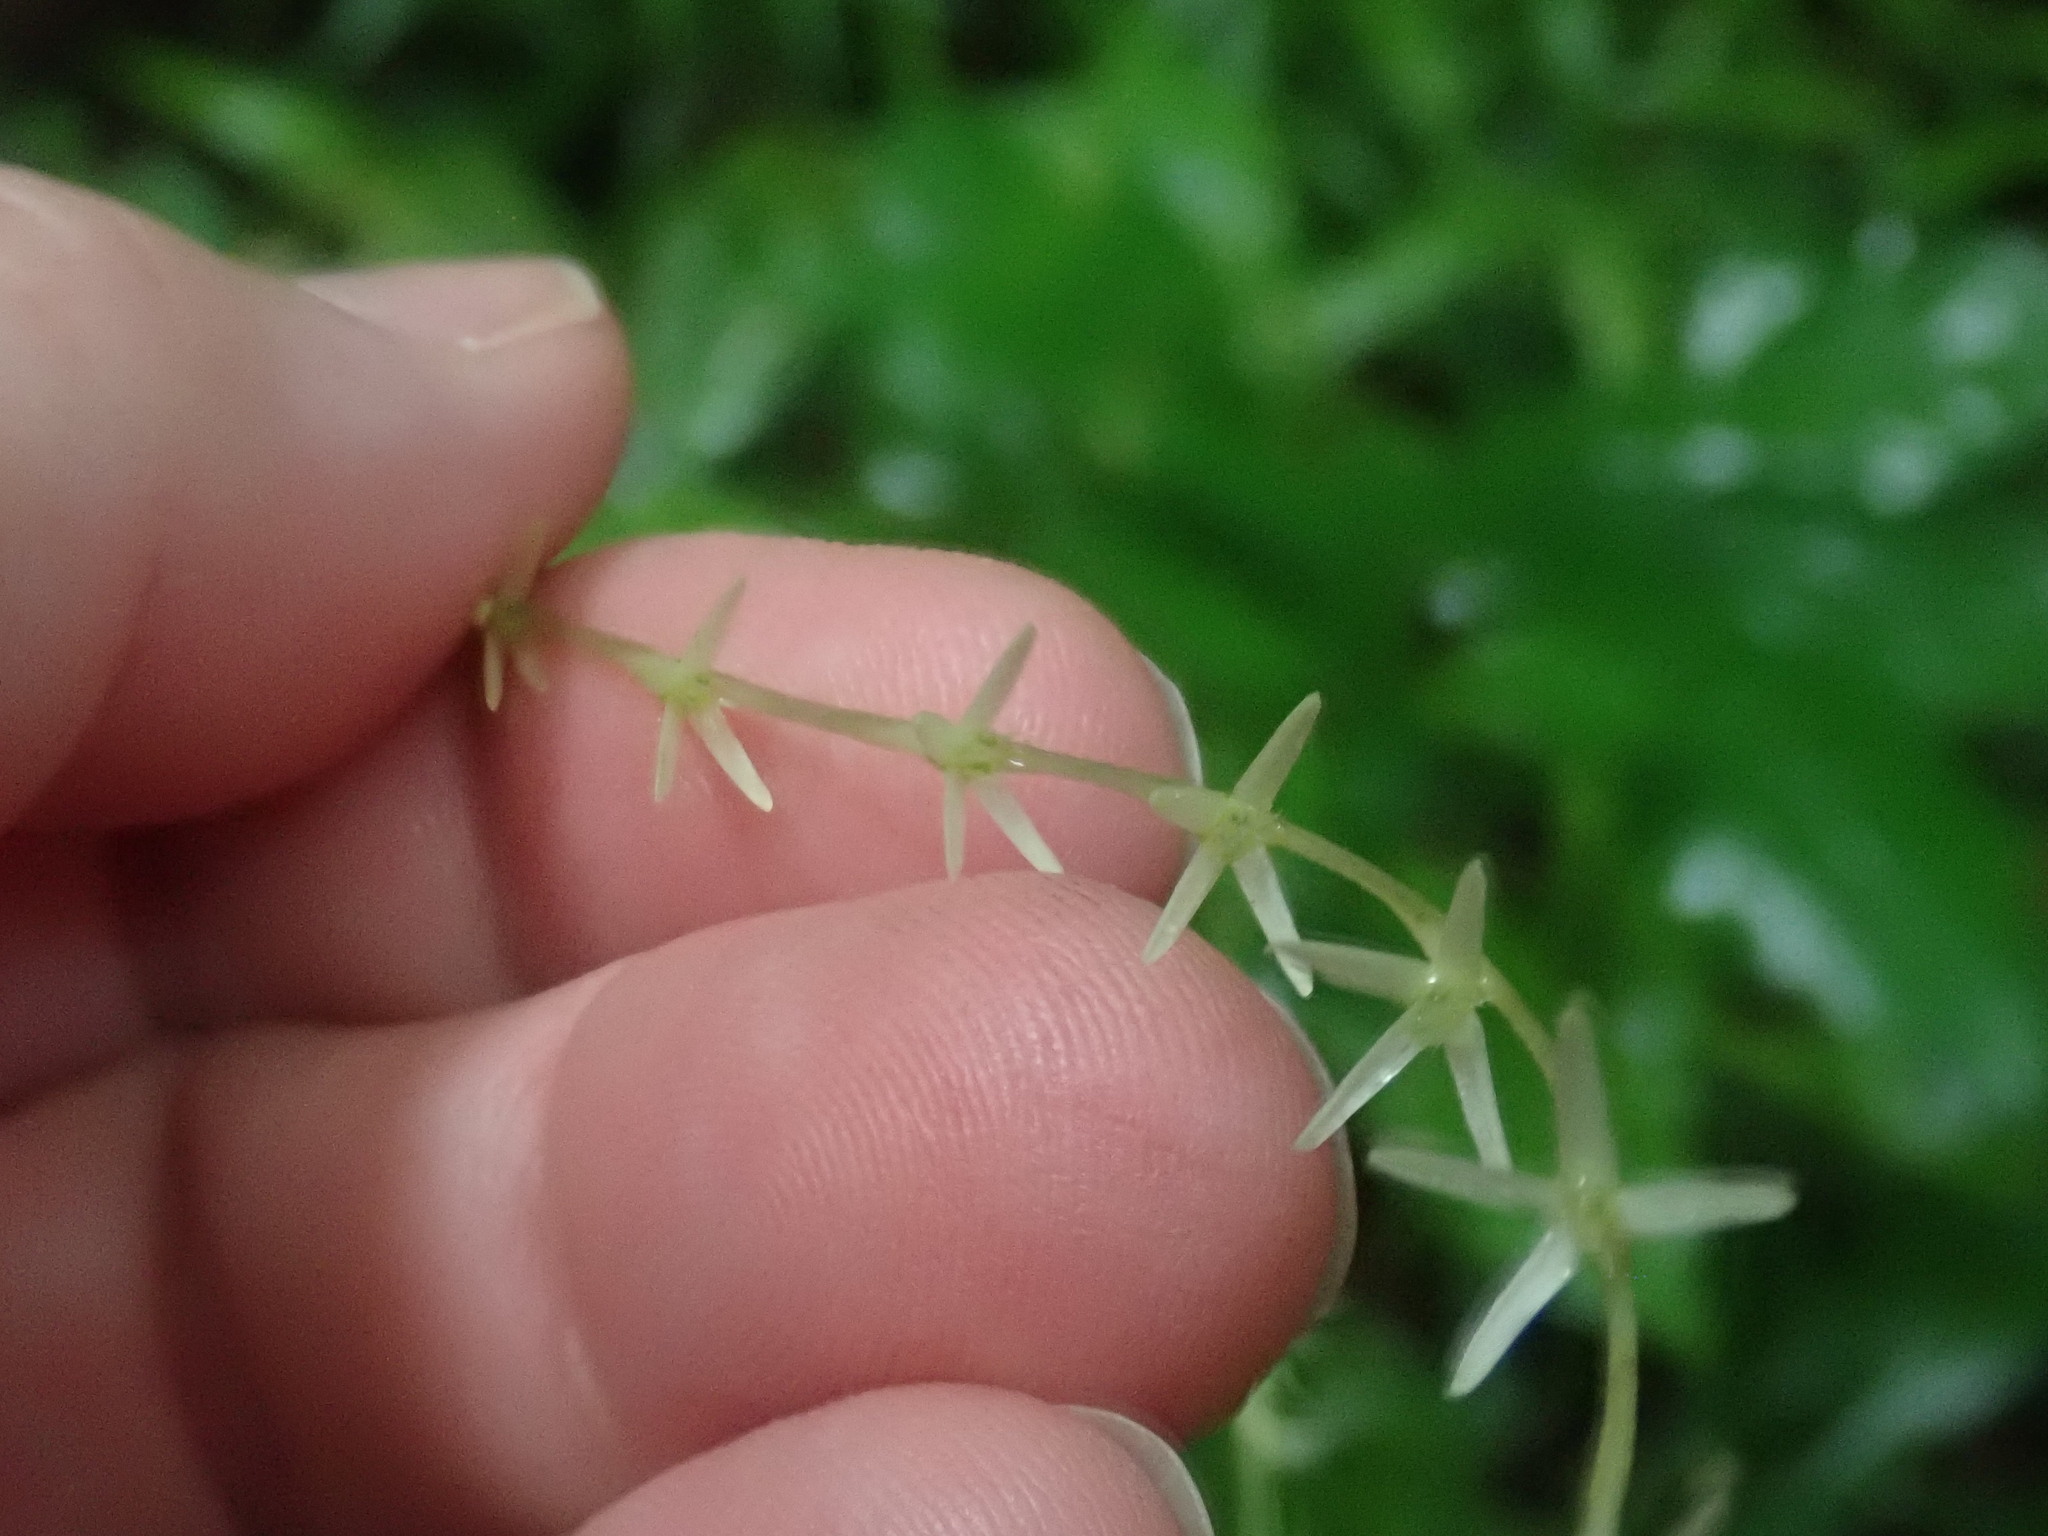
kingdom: Plantae
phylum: Tracheophyta
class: Magnoliopsida
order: Caryophyllales
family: Phytolaccaceae
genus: Petiveria
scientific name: Petiveria alliacea
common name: Garlicweed
